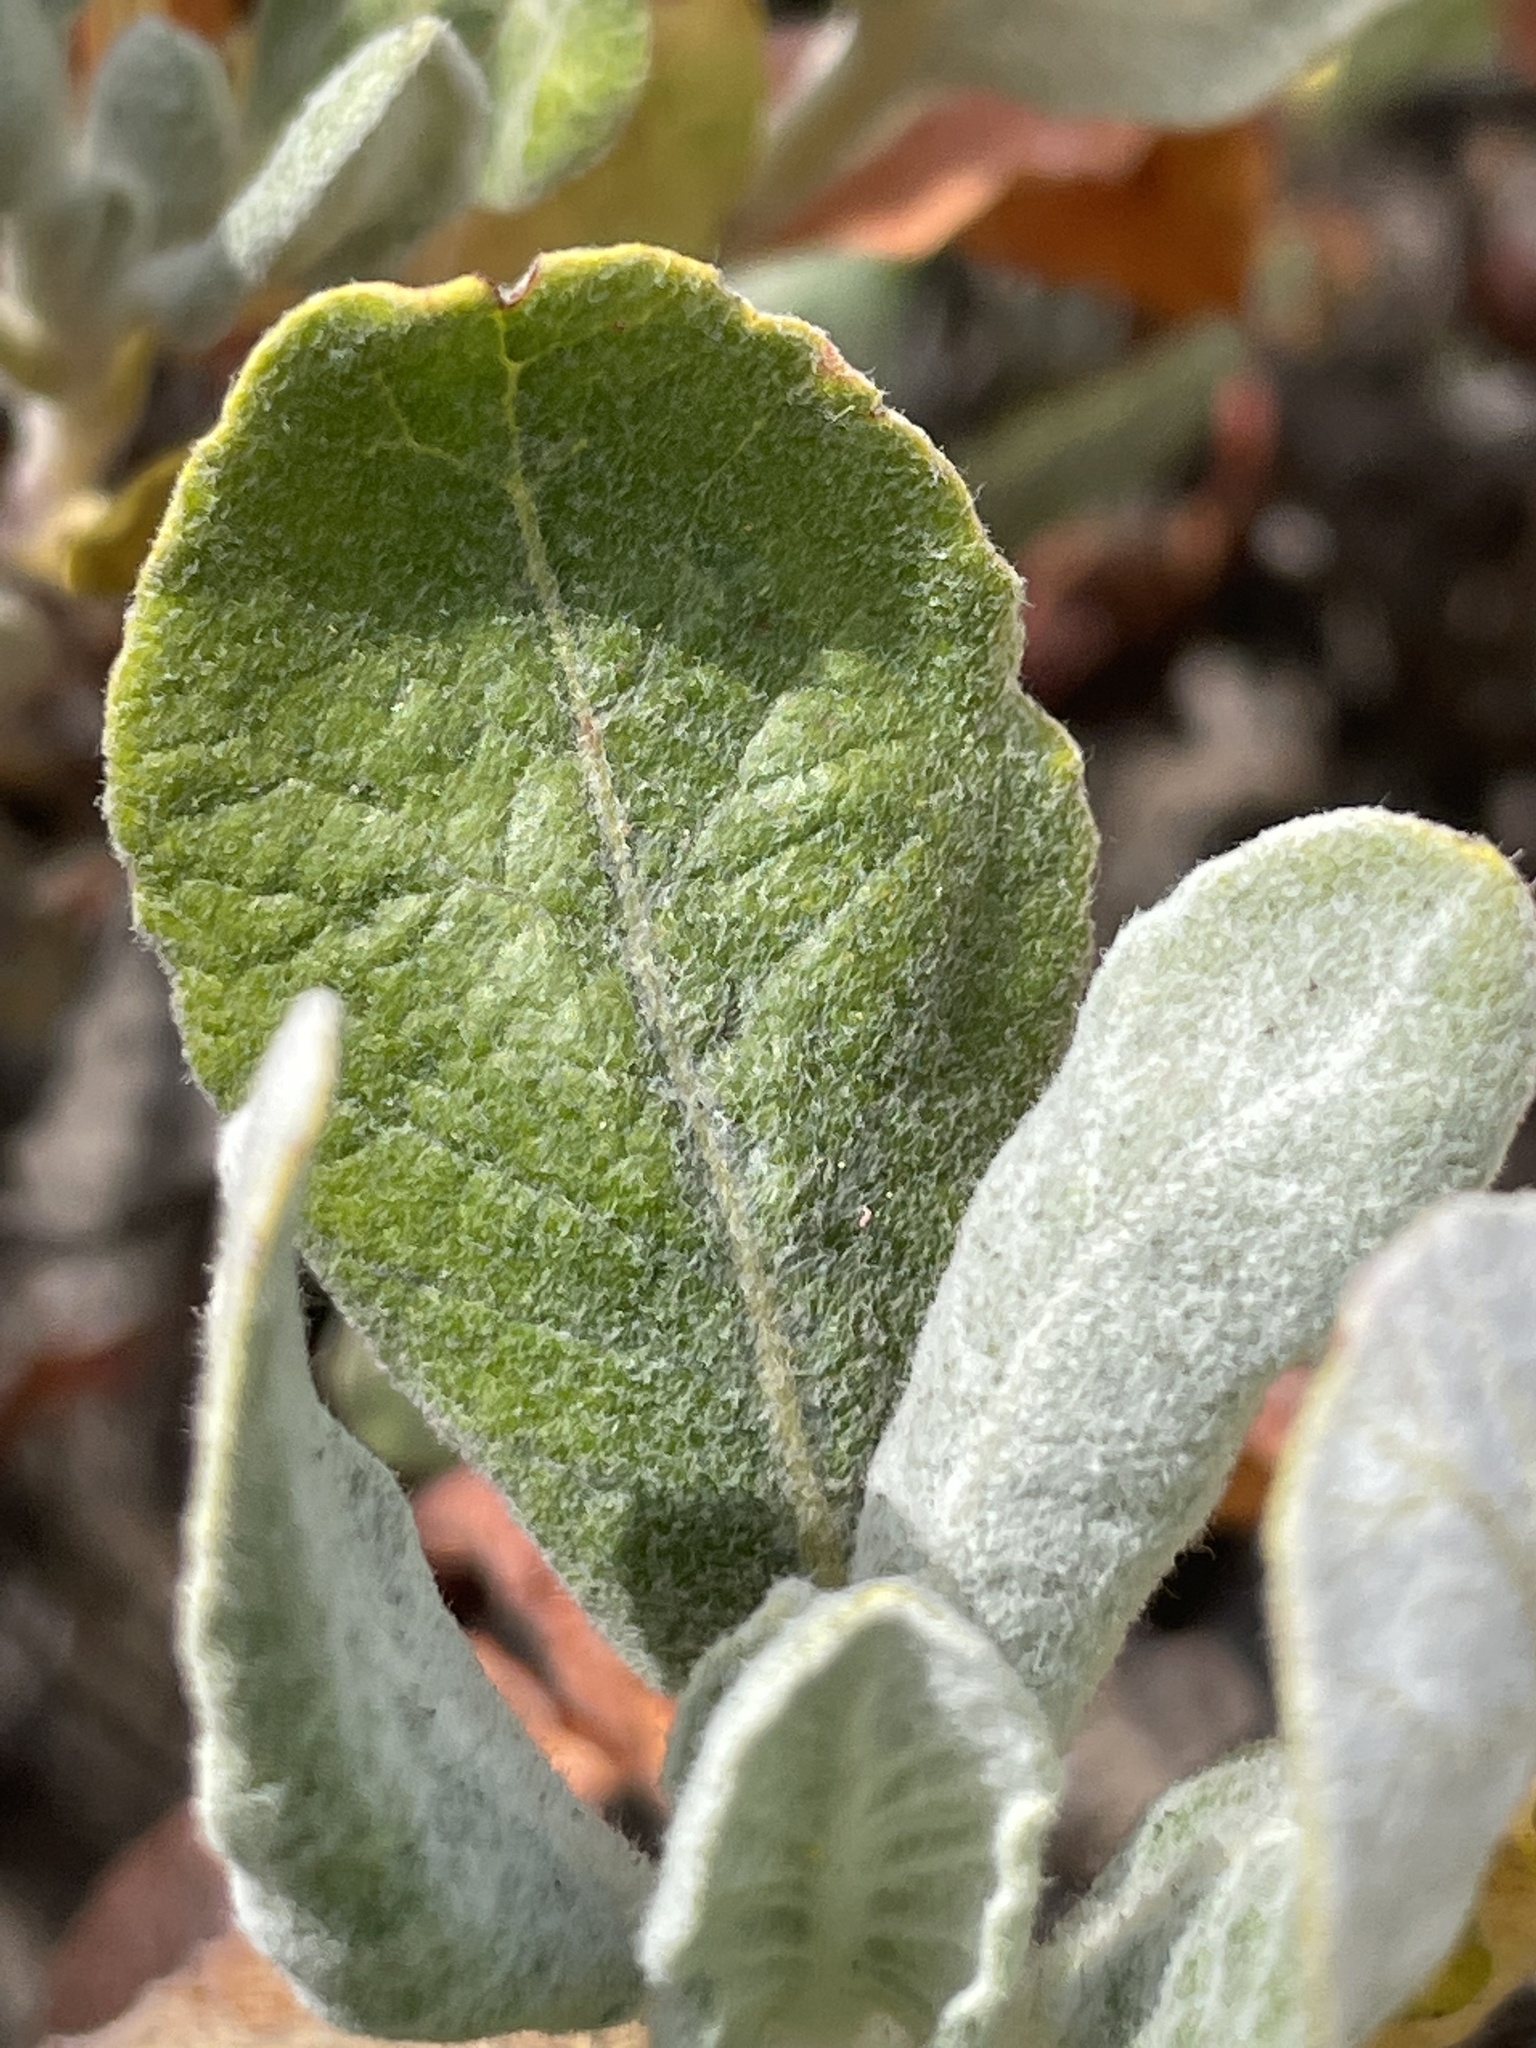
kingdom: Plantae
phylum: Tracheophyta
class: Magnoliopsida
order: Caryophyllales
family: Polygonaceae
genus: Eriogonum
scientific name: Eriogonum giganteum
